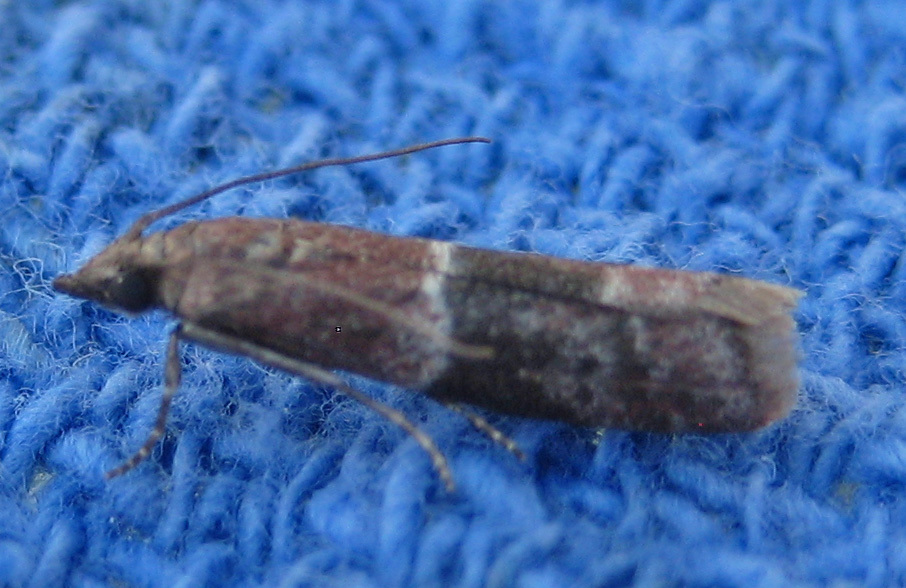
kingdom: Animalia
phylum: Arthropoda
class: Insecta
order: Lepidoptera
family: Pyralidae
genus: Moodna
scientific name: Moodna ostrinella
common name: Darker moodna moth
